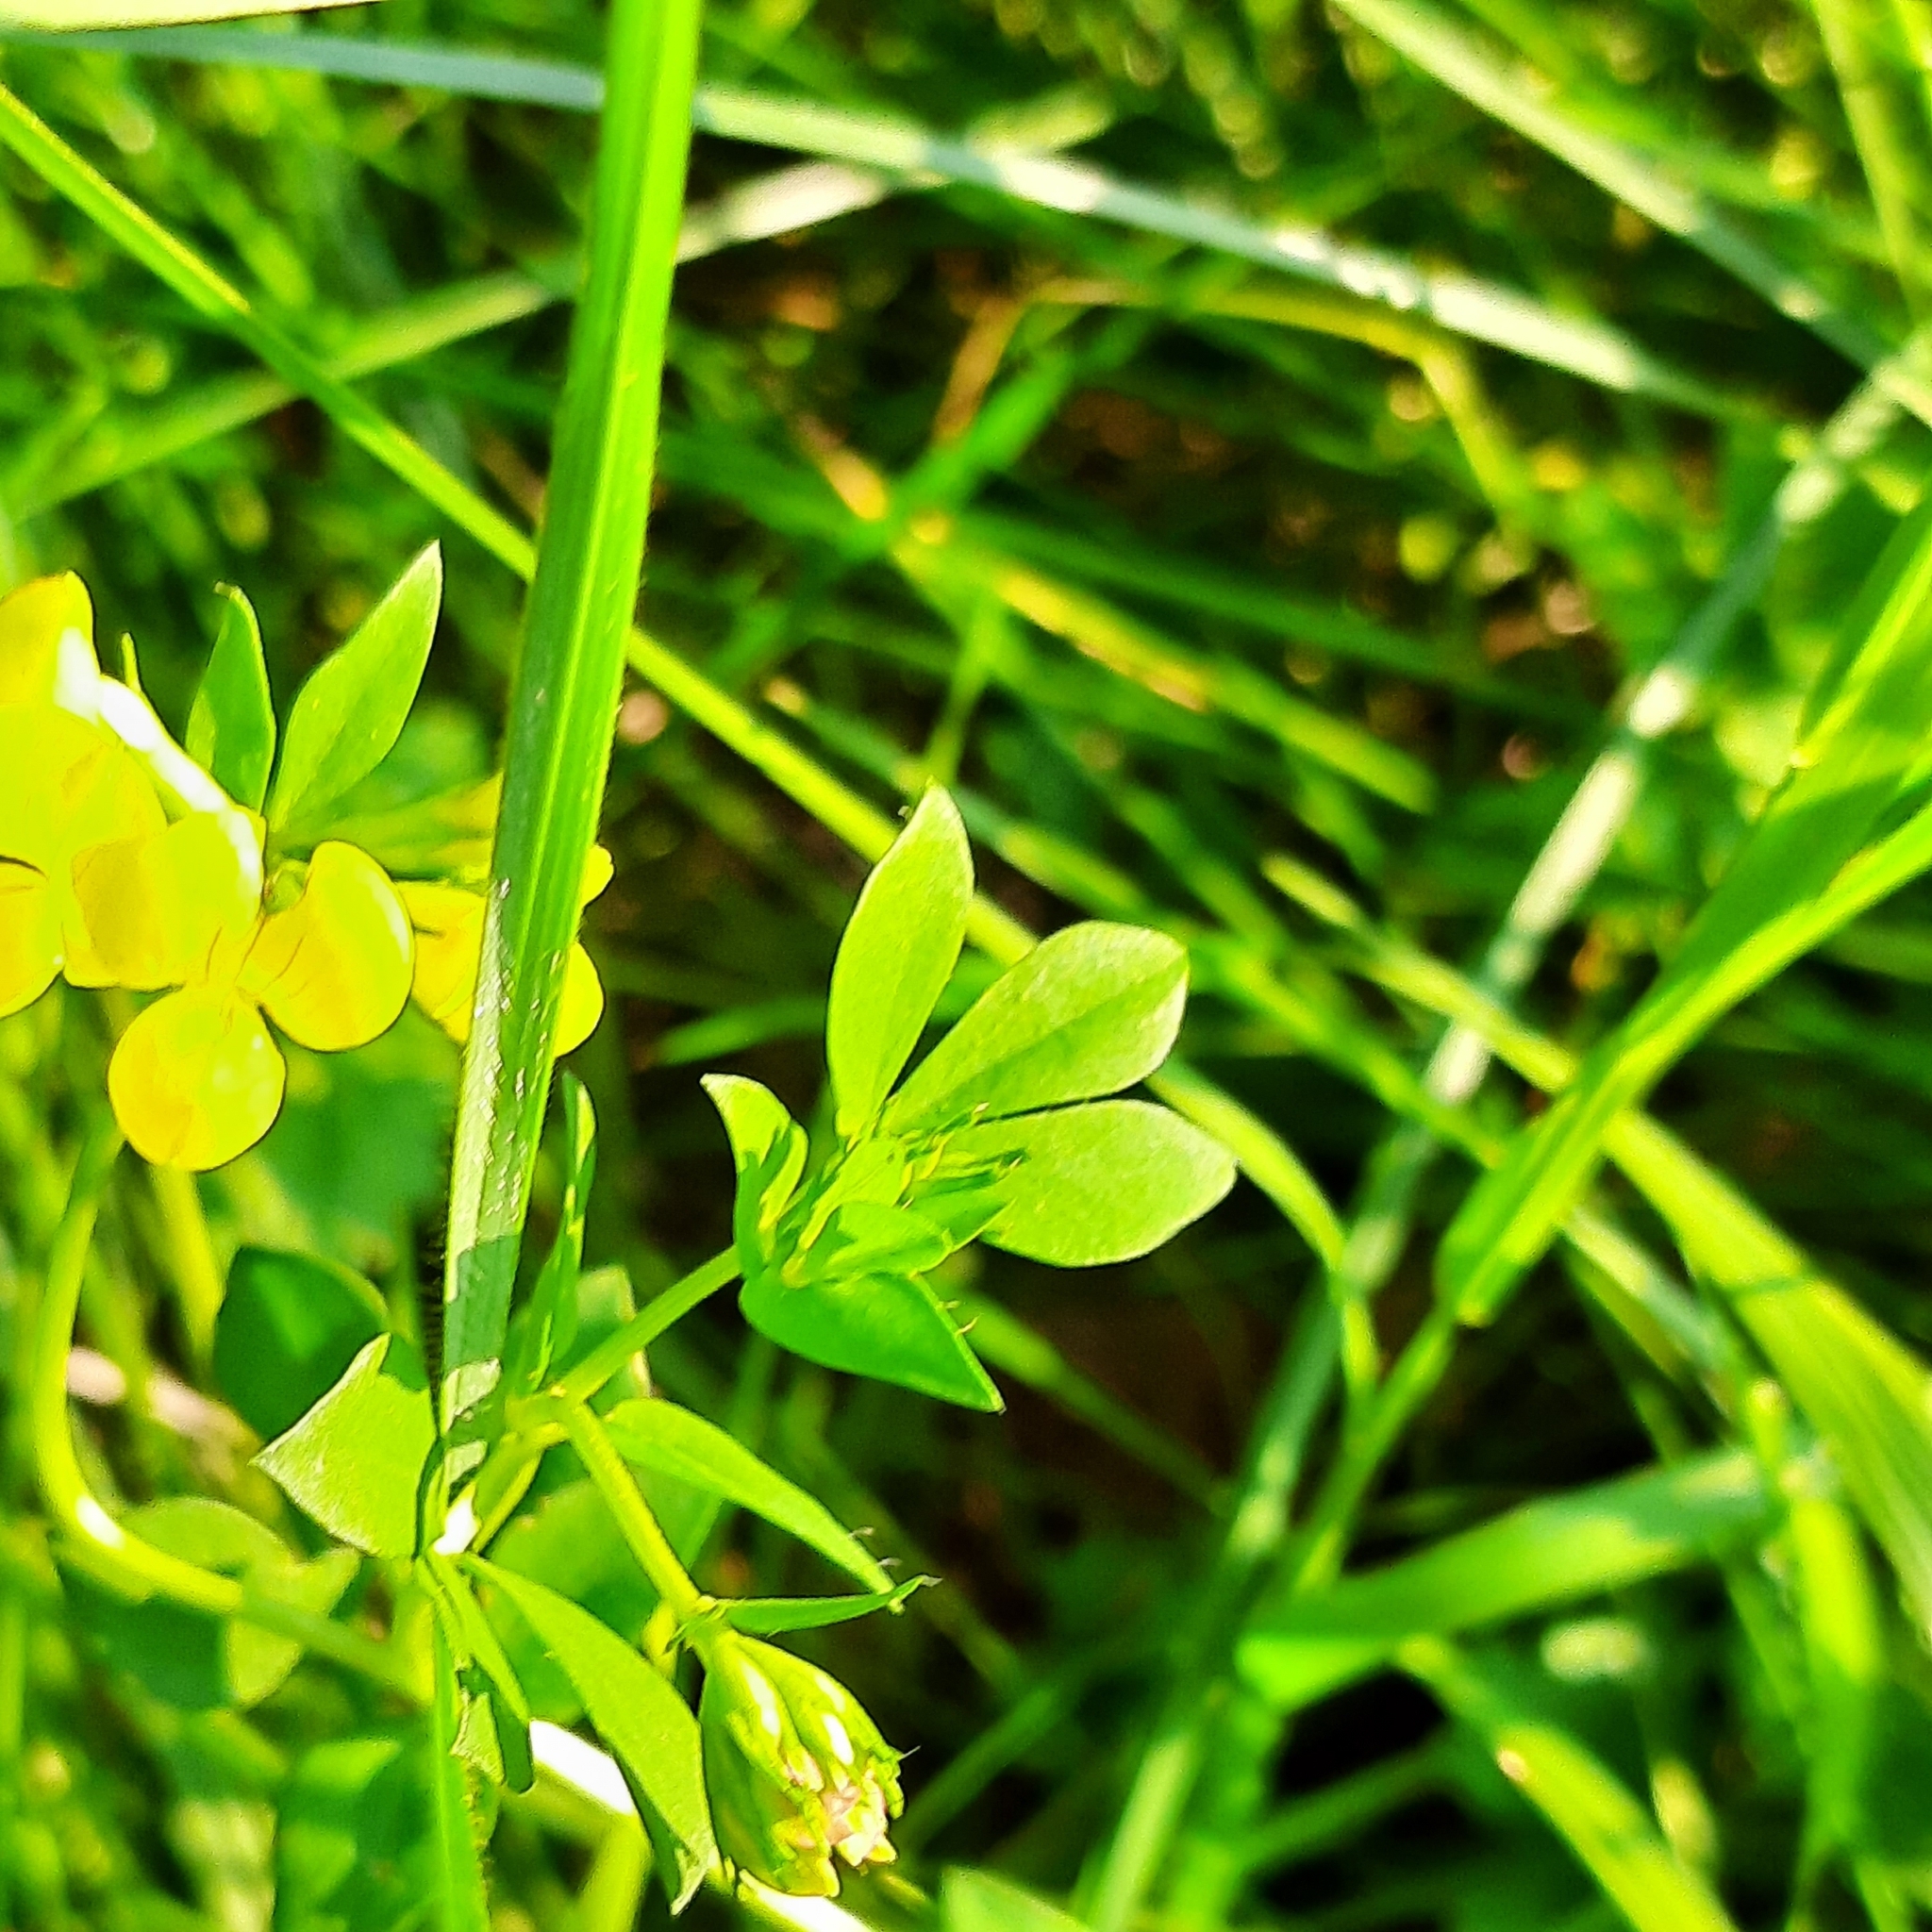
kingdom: Plantae
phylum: Tracheophyta
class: Magnoliopsida
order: Fabales
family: Fabaceae
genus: Lotus
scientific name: Lotus corniculatus
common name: Common bird's-foot-trefoil
